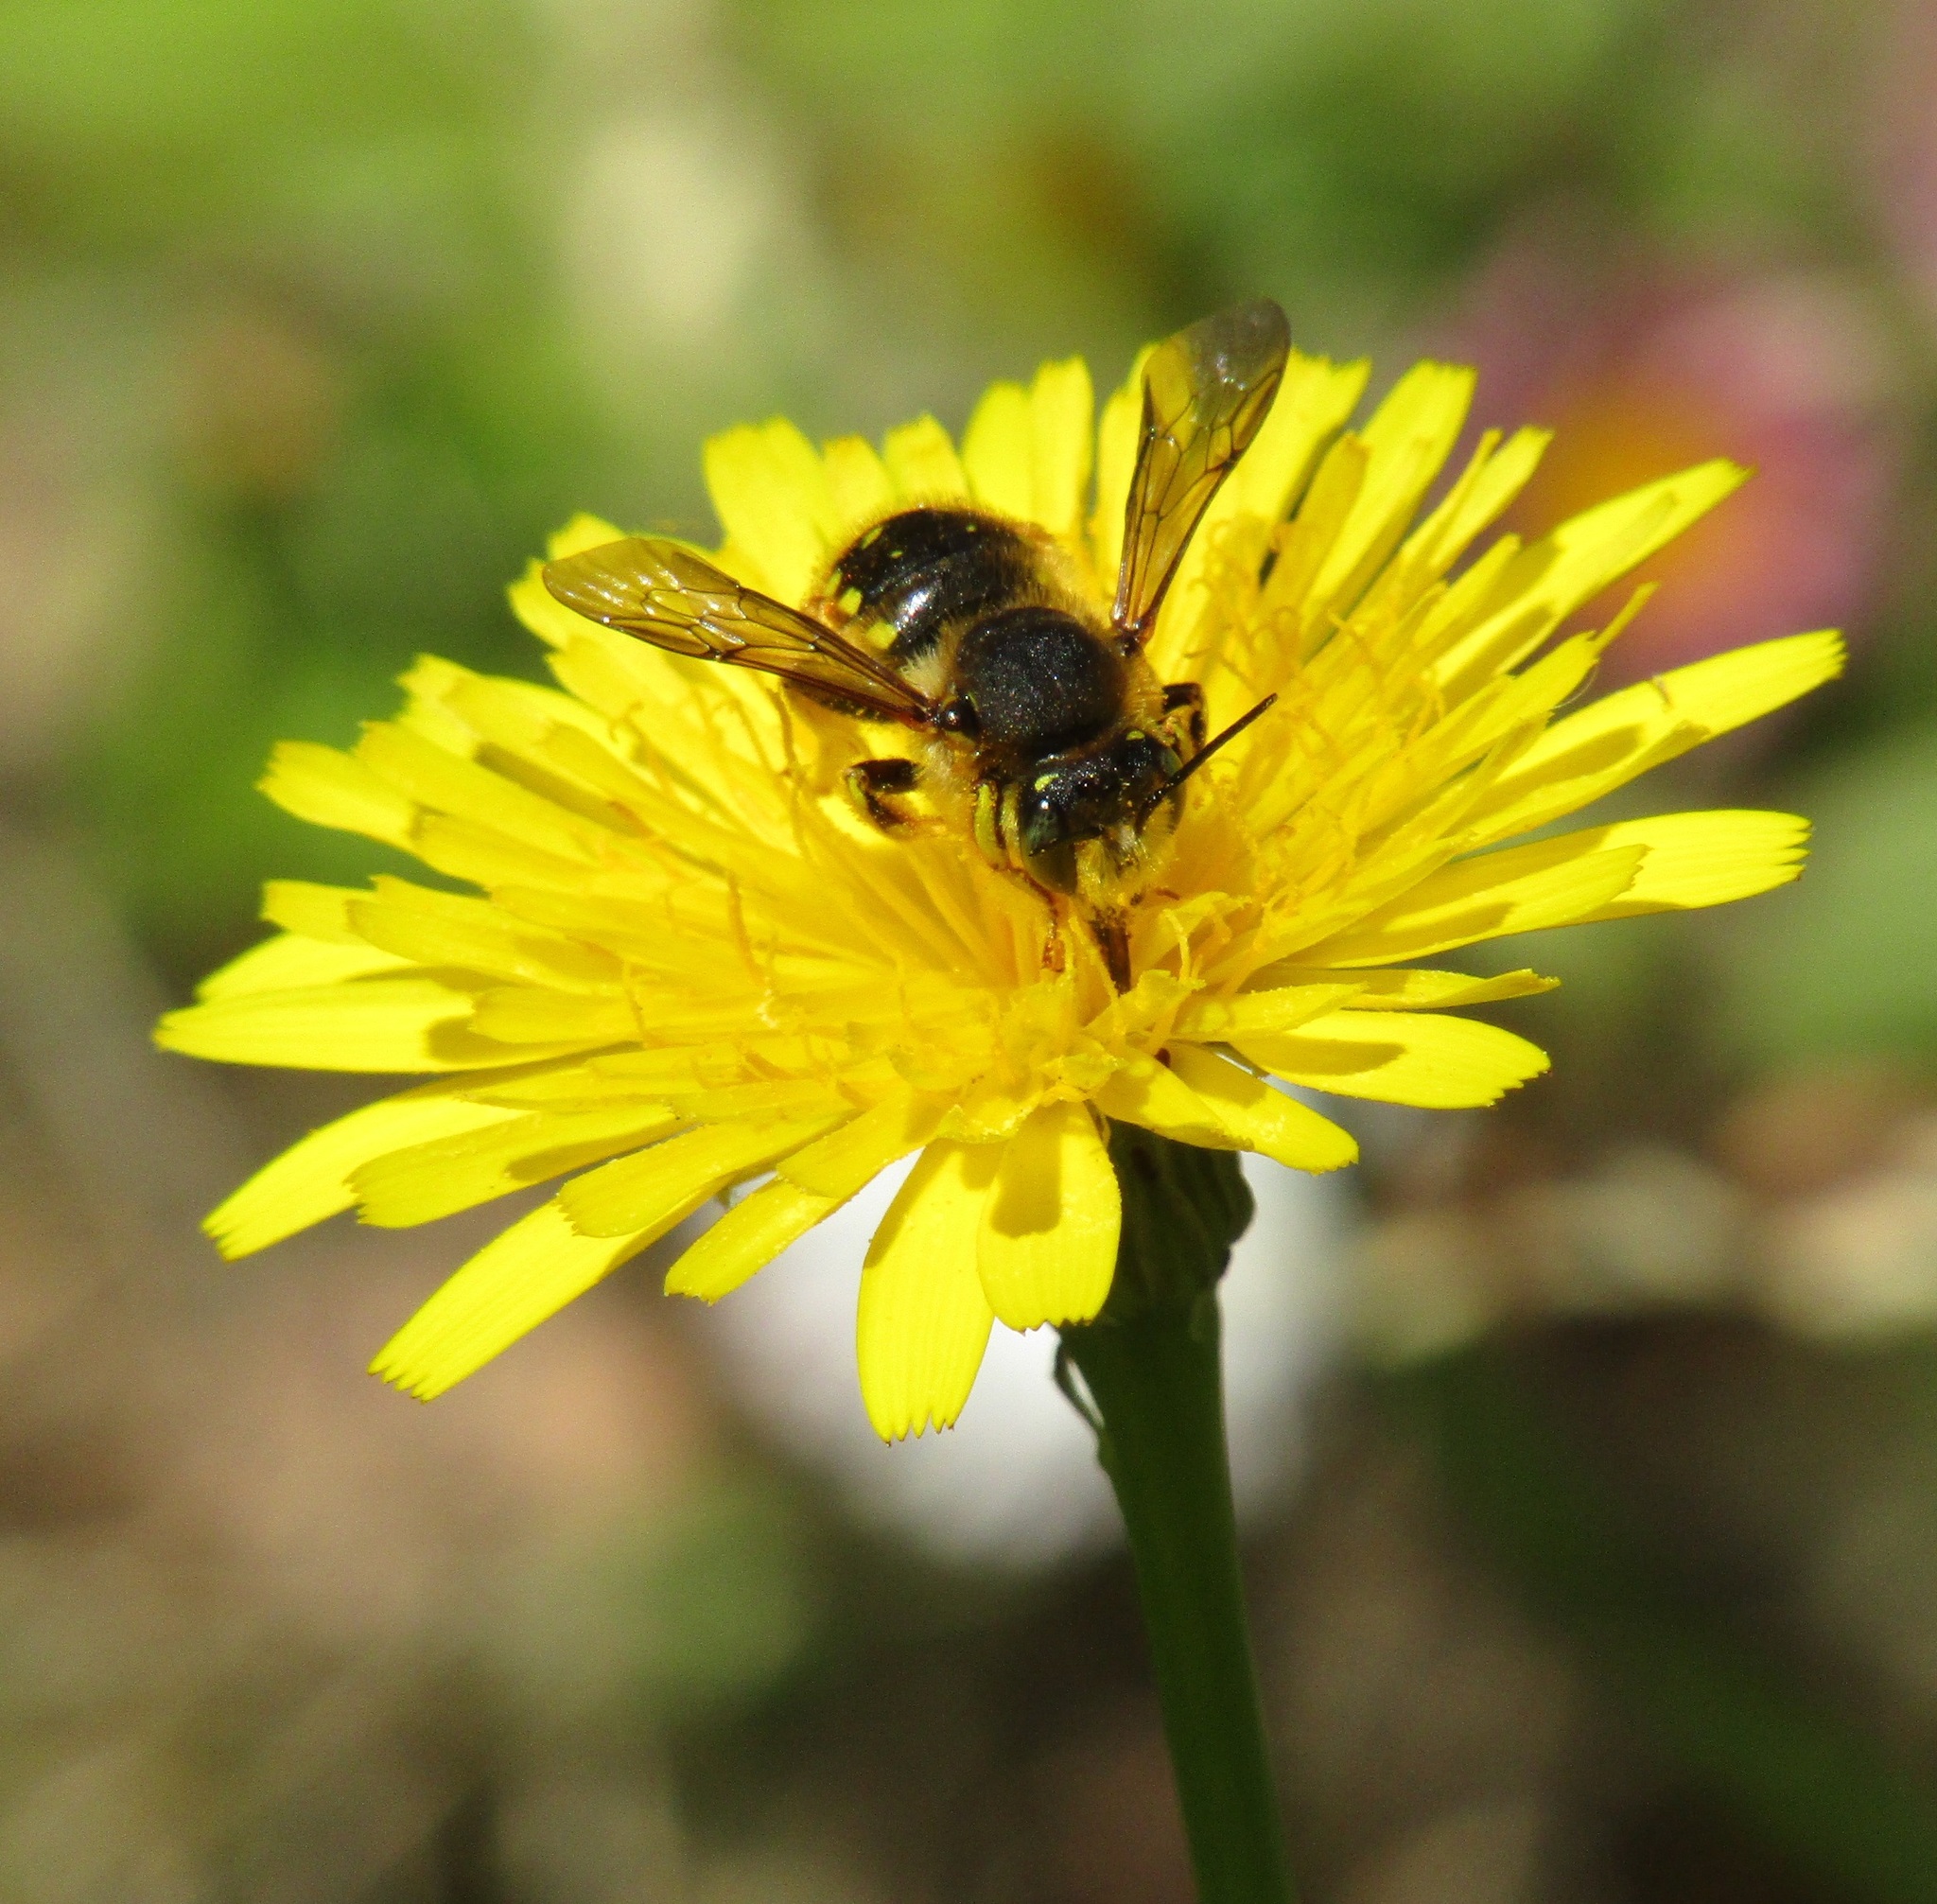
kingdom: Animalia
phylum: Arthropoda
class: Insecta
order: Hymenoptera
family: Megachilidae
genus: Anthidium
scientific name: Anthidium manicatum
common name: Wool carder bee
